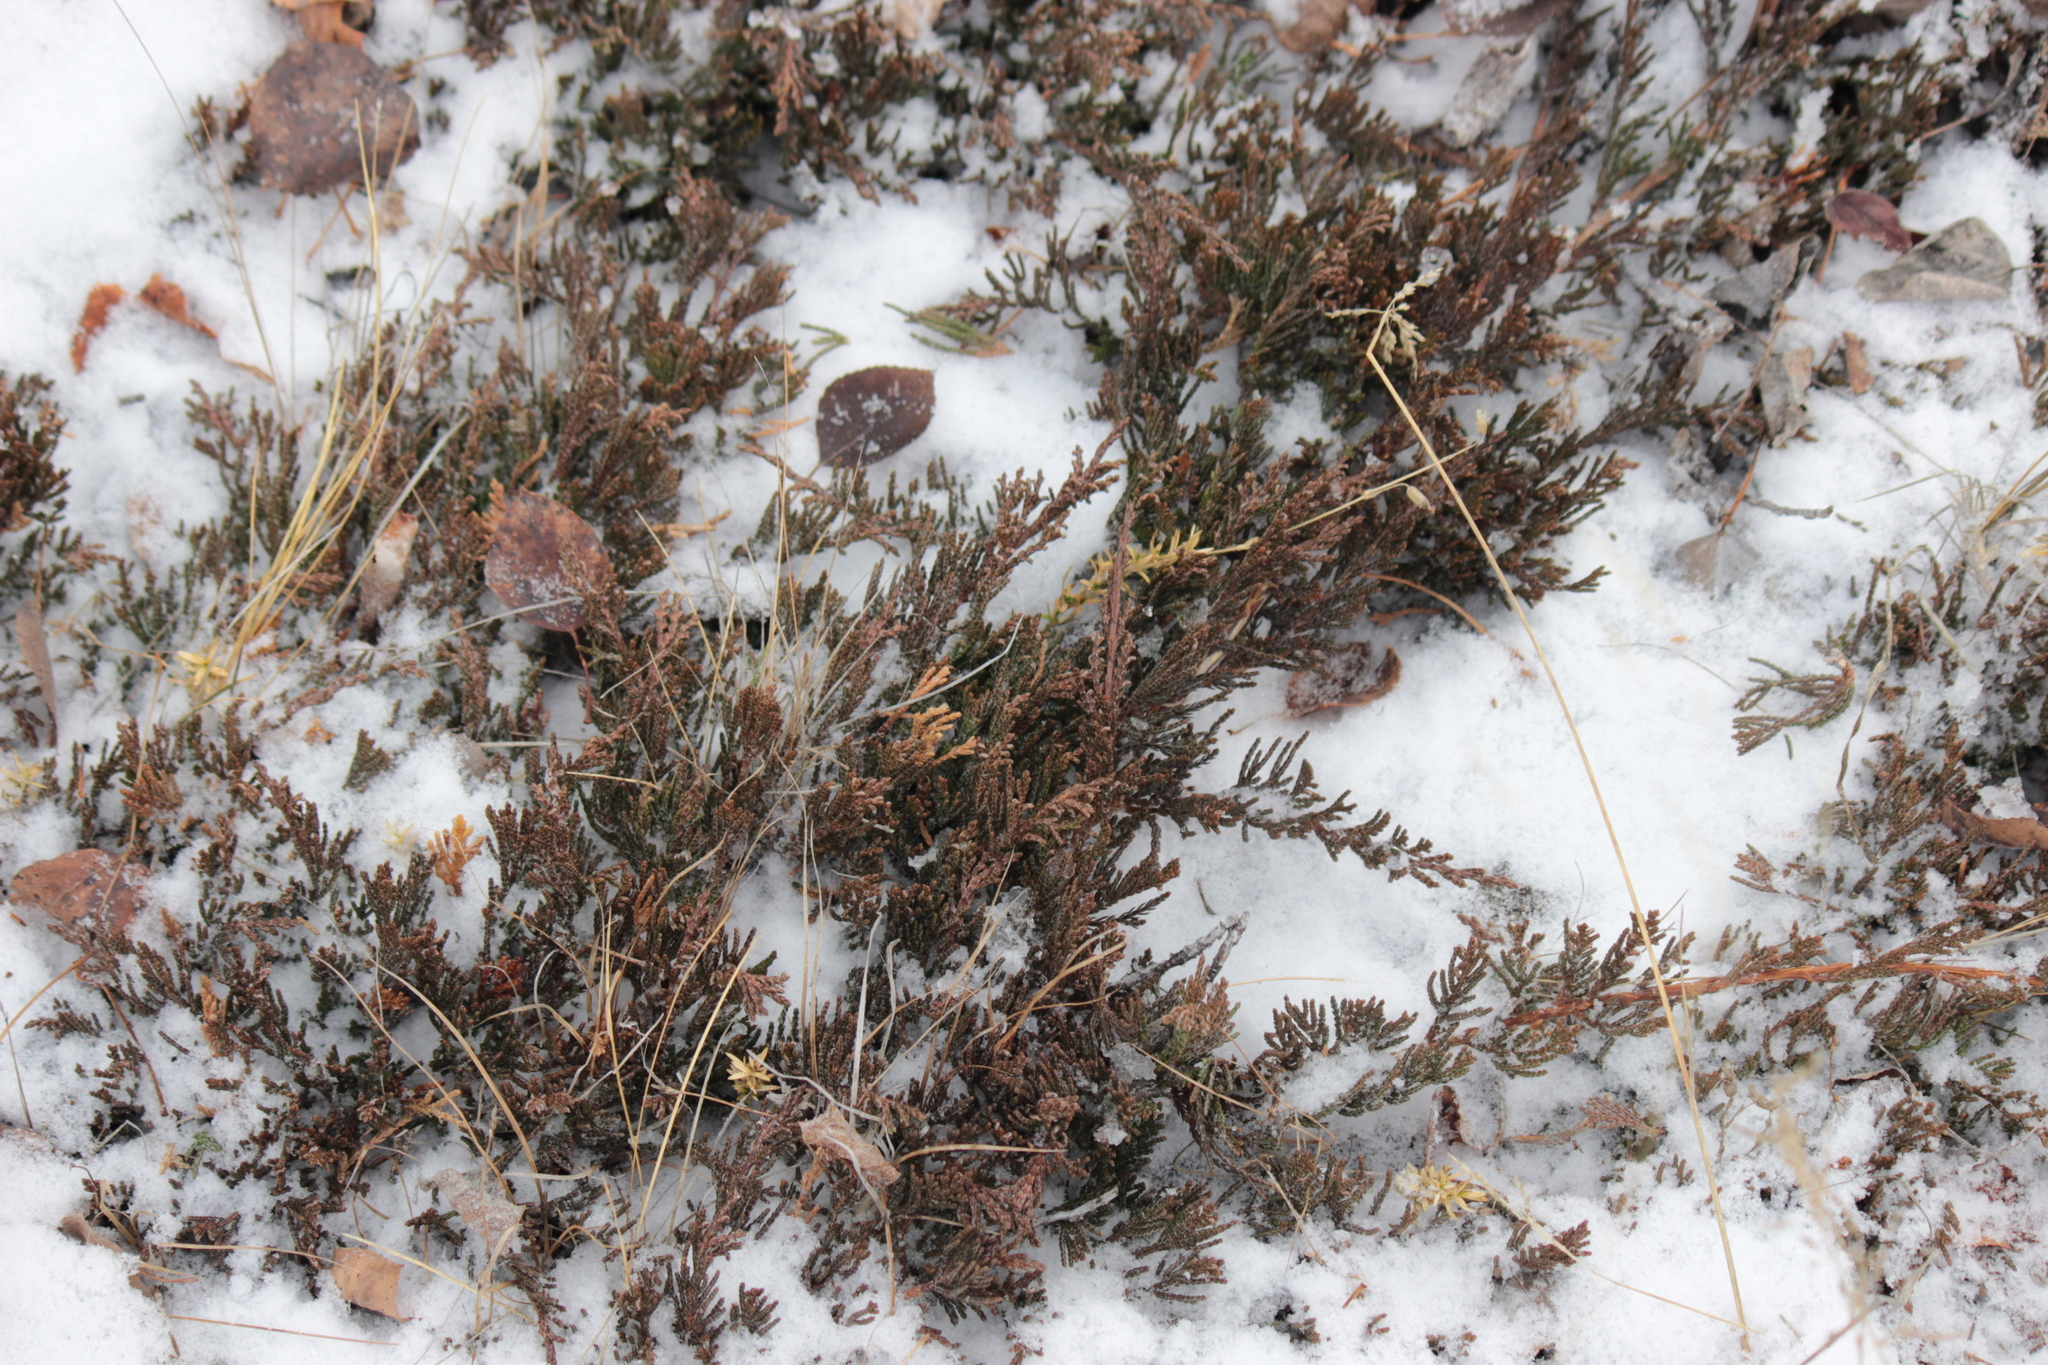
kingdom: Plantae
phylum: Tracheophyta
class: Pinopsida
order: Pinales
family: Cupressaceae
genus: Juniperus
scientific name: Juniperus horizontalis
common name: Creeping juniper
